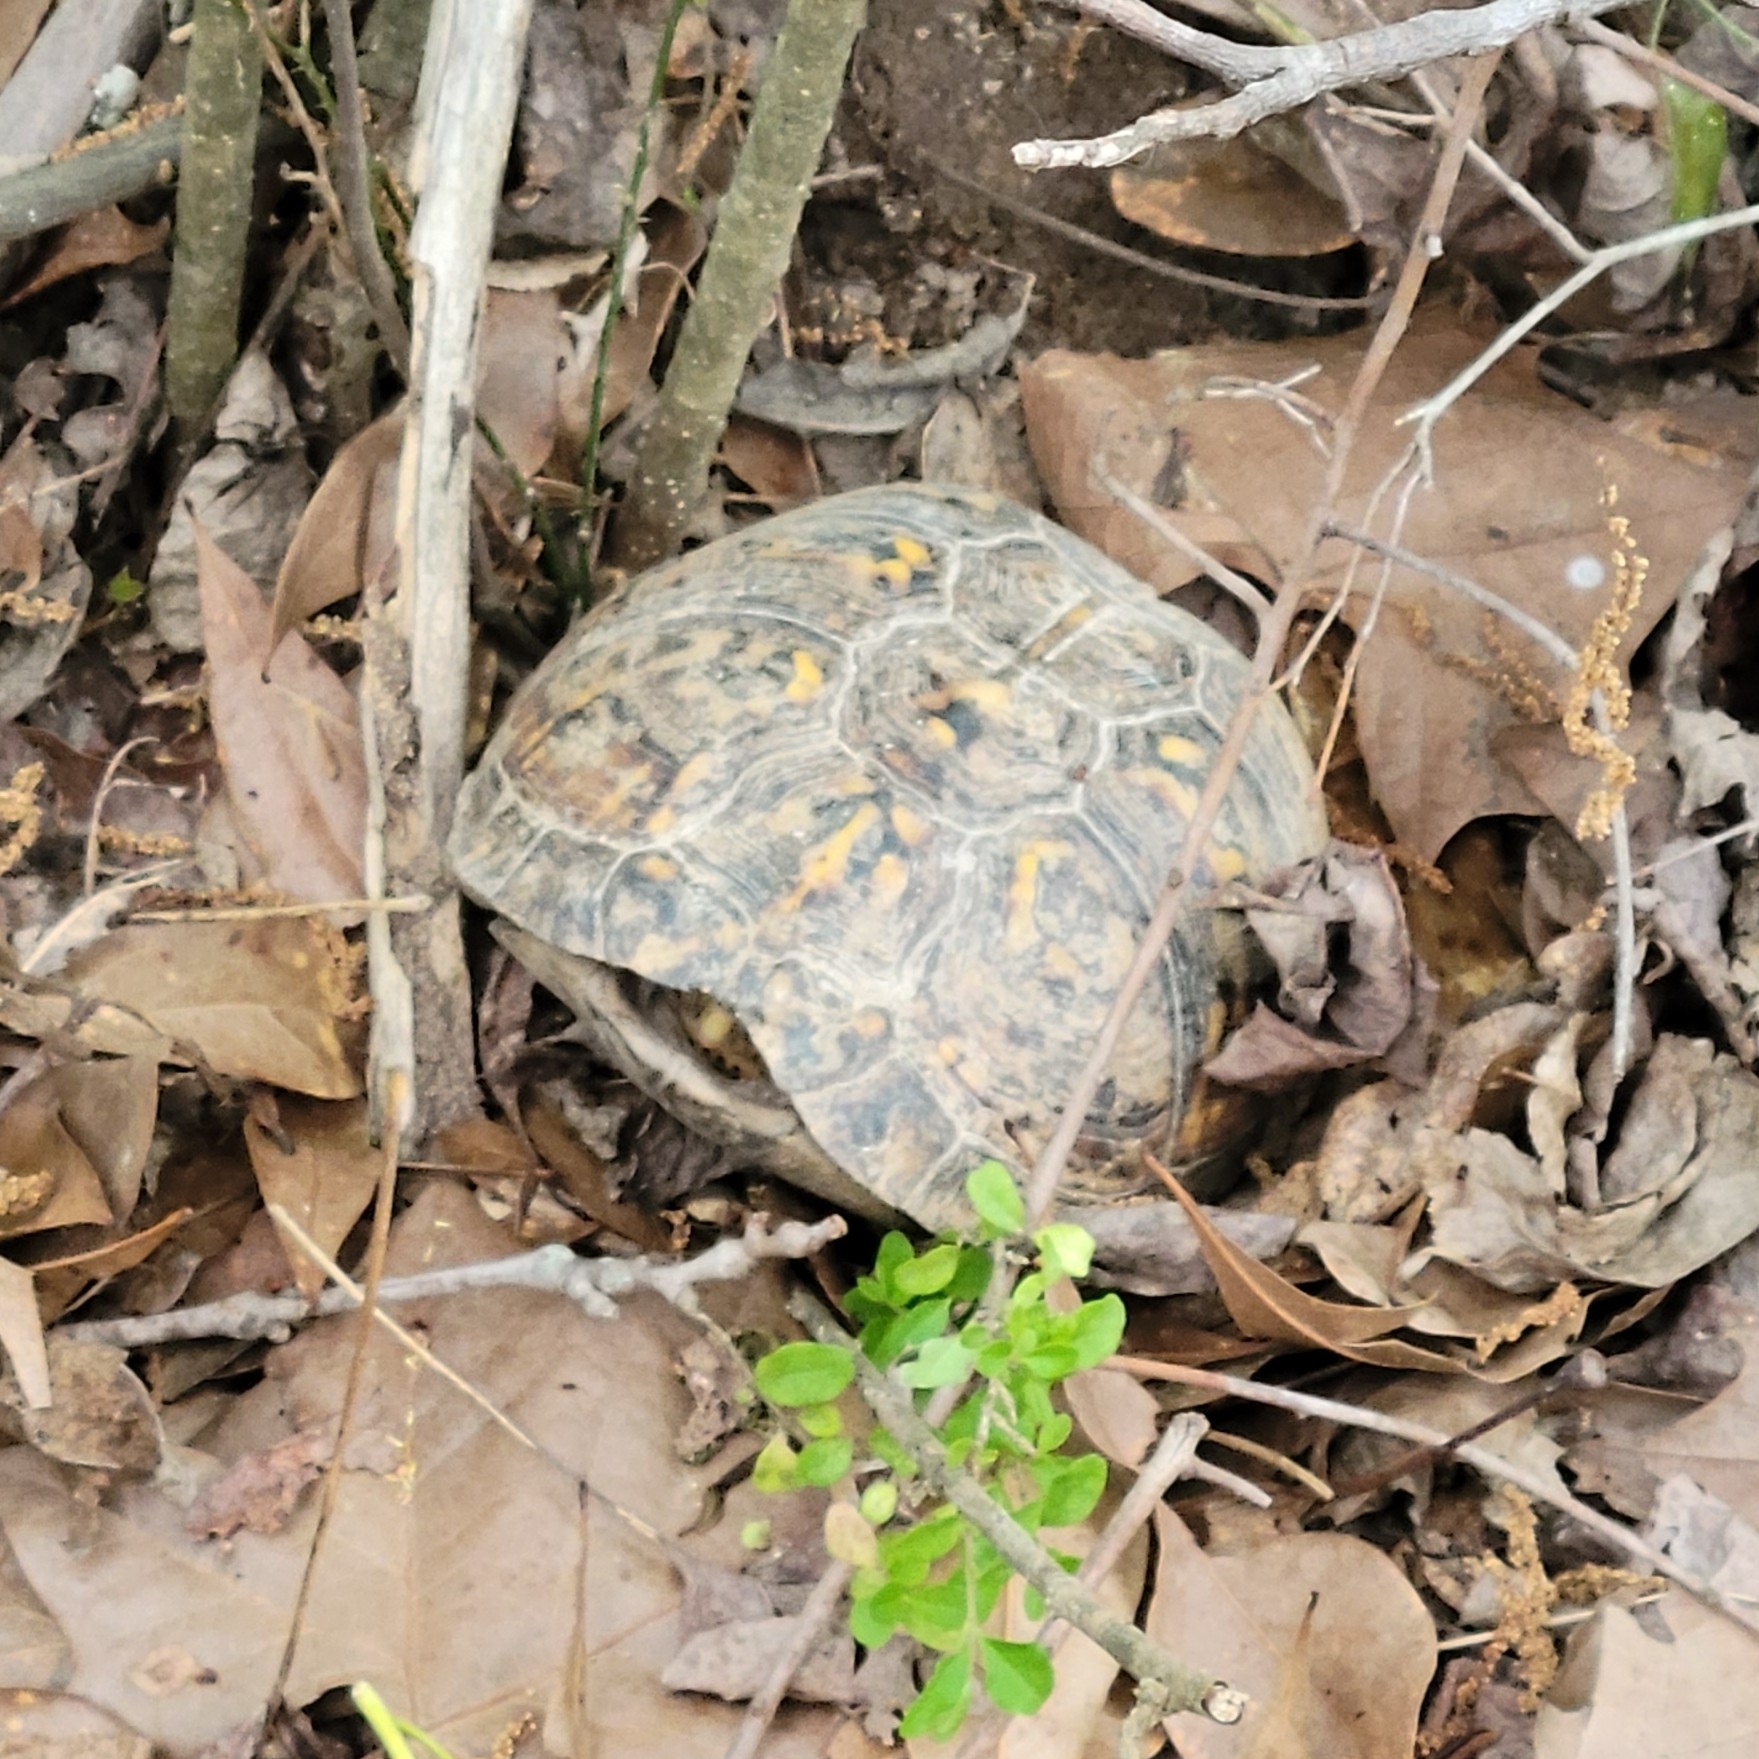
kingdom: Animalia
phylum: Chordata
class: Testudines
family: Emydidae
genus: Terrapene
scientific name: Terrapene carolina
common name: Common box turtle
